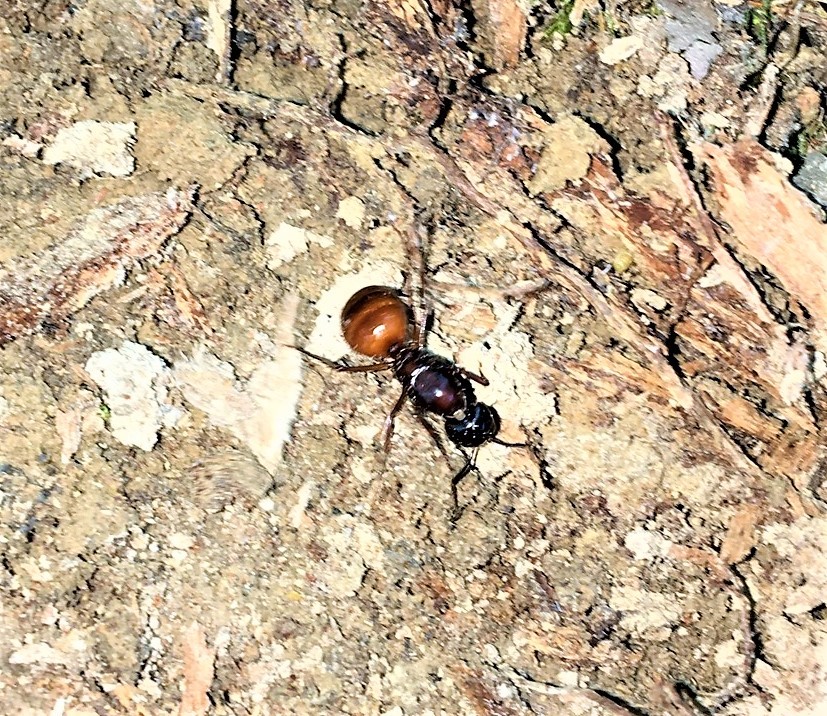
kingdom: Animalia
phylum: Arthropoda
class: Insecta
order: Hymenoptera
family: Formicidae
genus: Camponotus
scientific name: Camponotus americanus
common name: American carpenter ant
